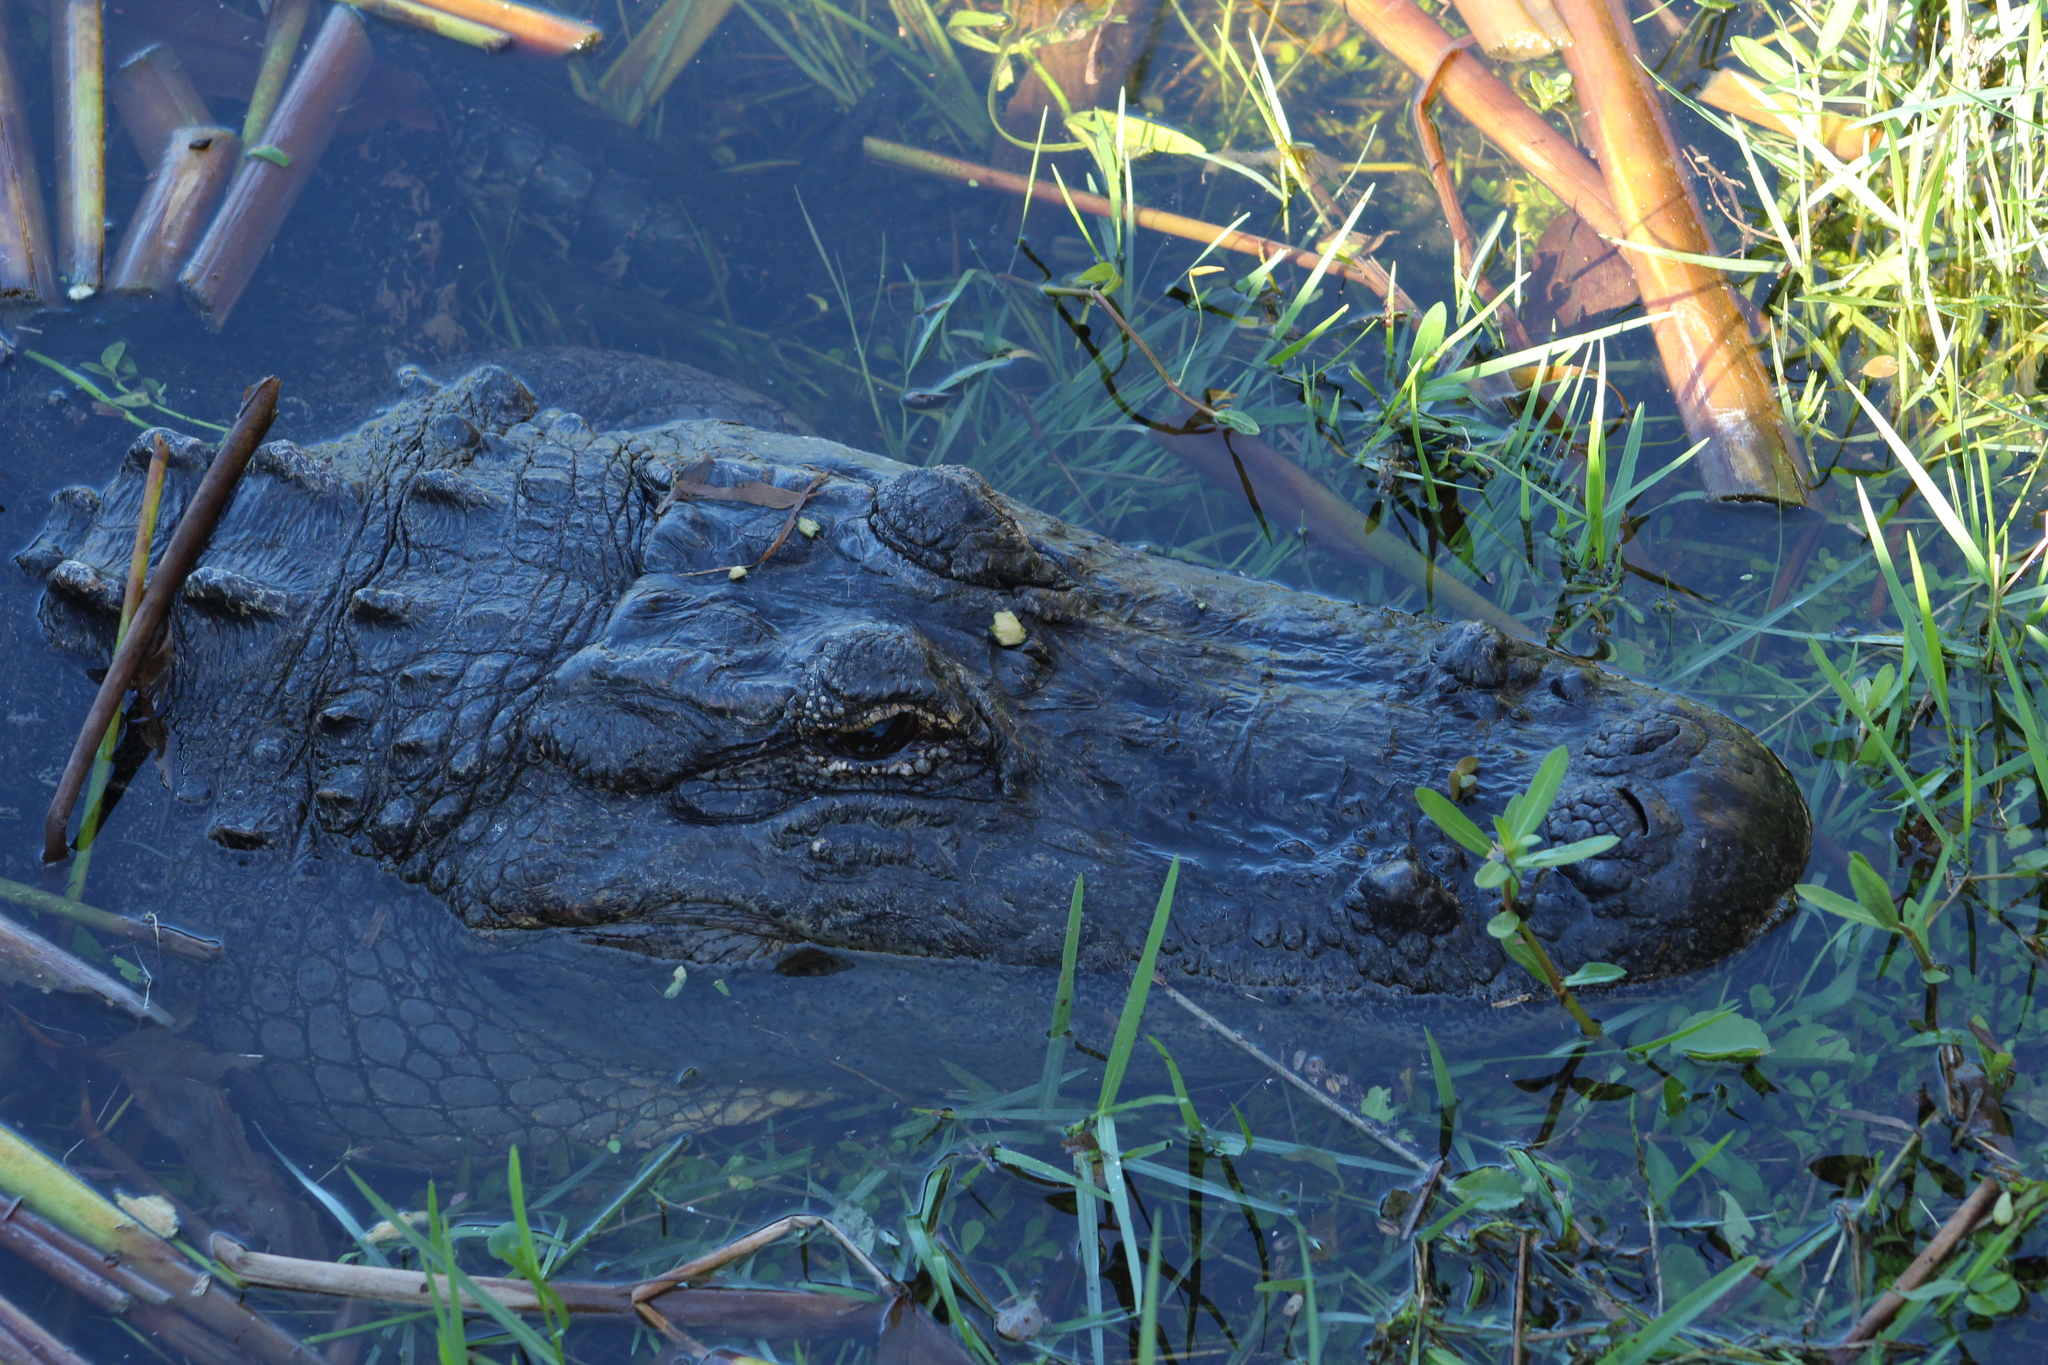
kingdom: Animalia
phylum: Chordata
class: Crocodylia
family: Alligatoridae
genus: Alligator
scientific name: Alligator mississippiensis
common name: American alligator
